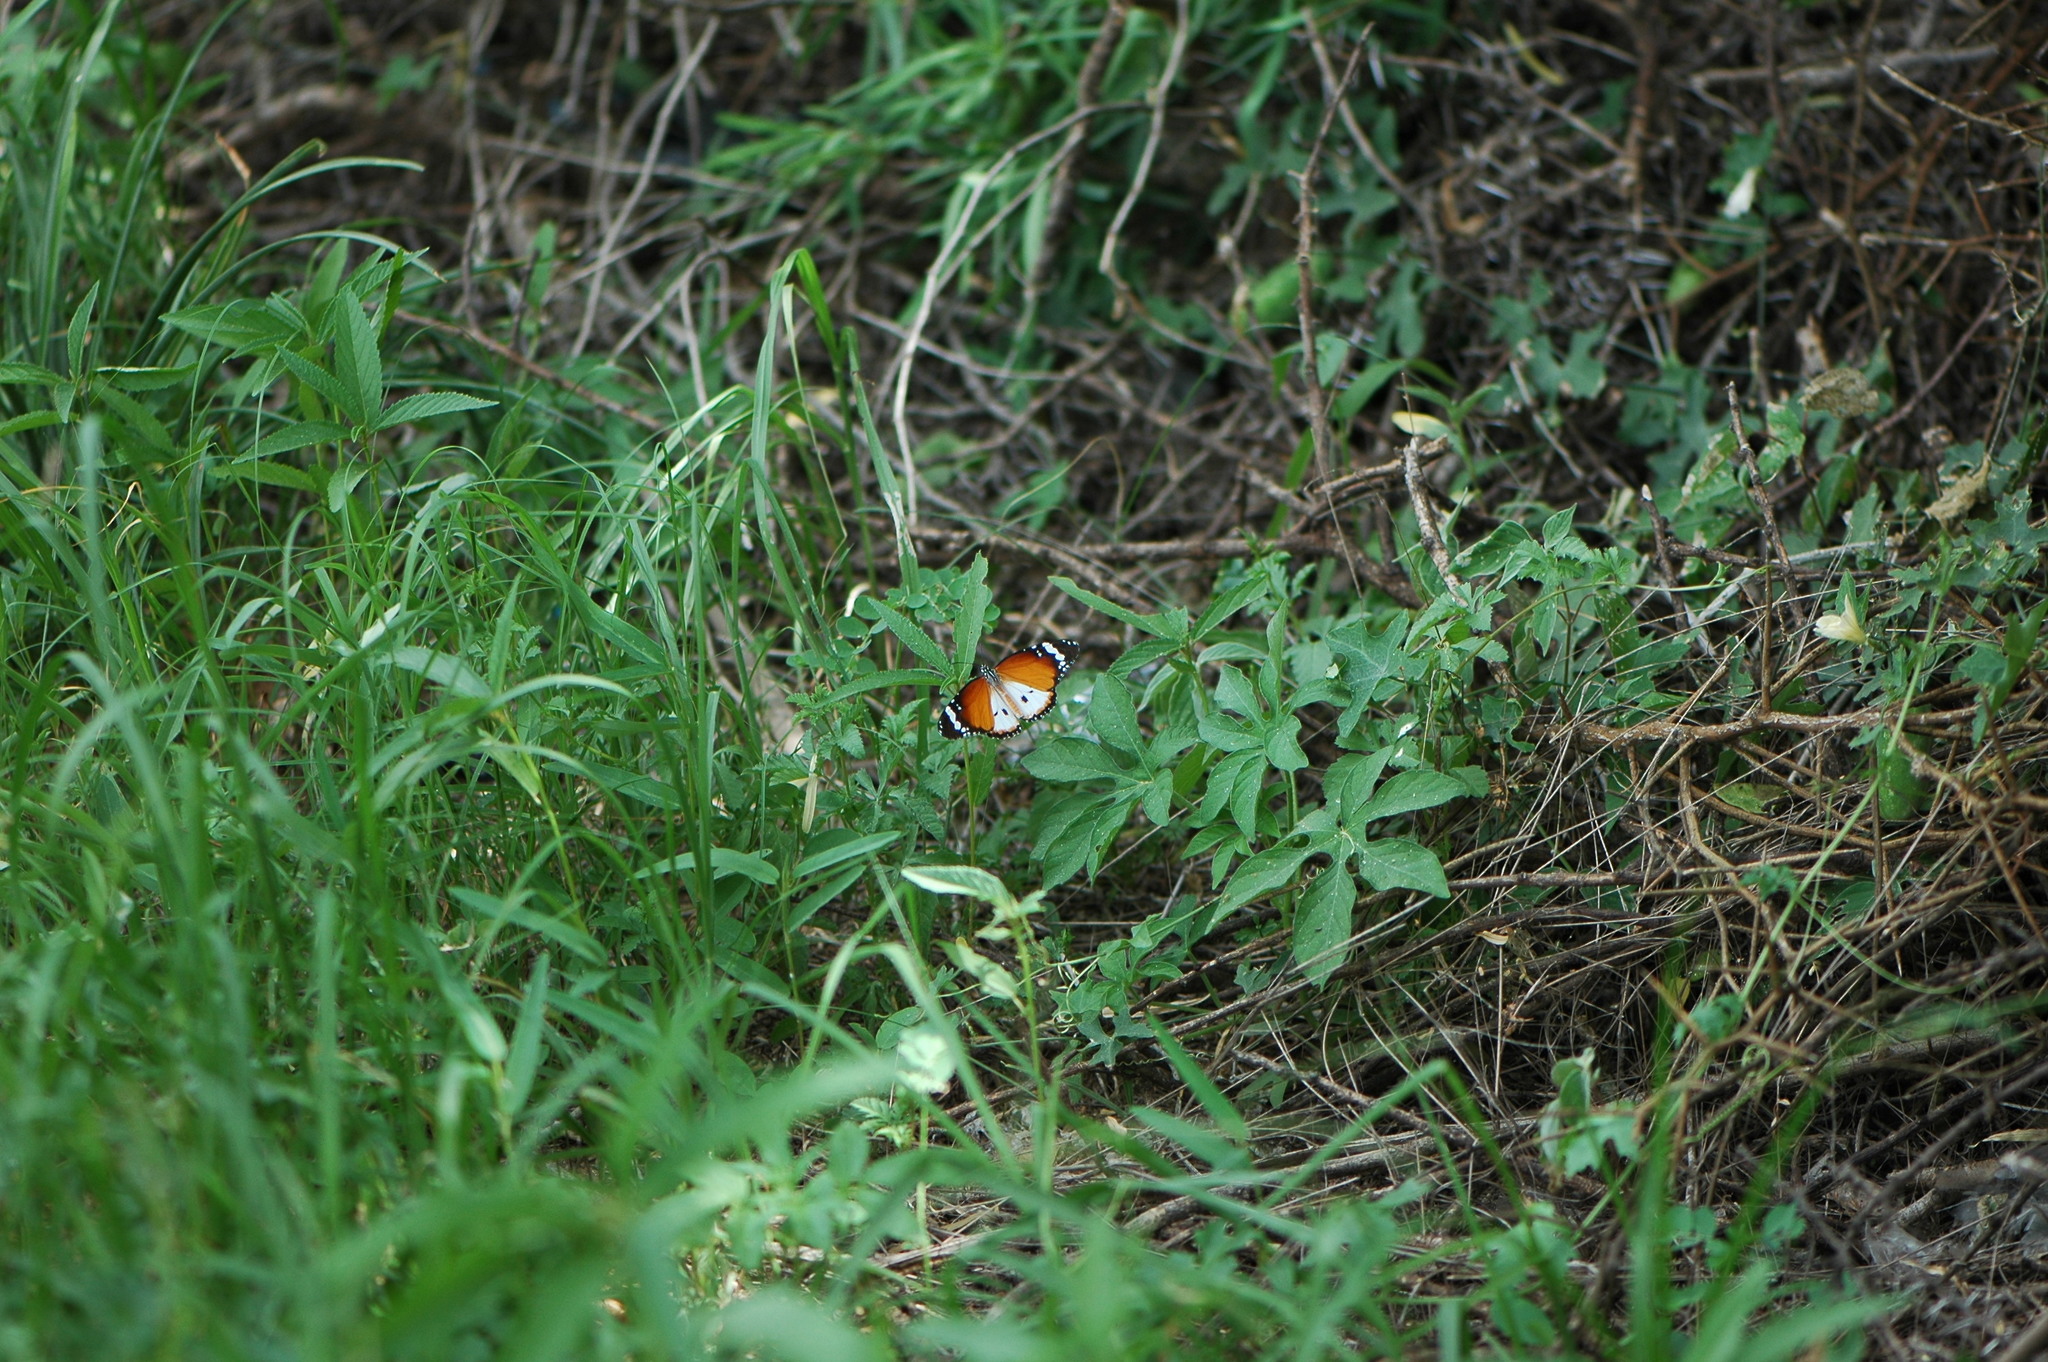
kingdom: Animalia
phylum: Arthropoda
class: Insecta
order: Lepidoptera
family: Nymphalidae
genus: Danaus
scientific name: Danaus chrysippus
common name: Plain tiger
